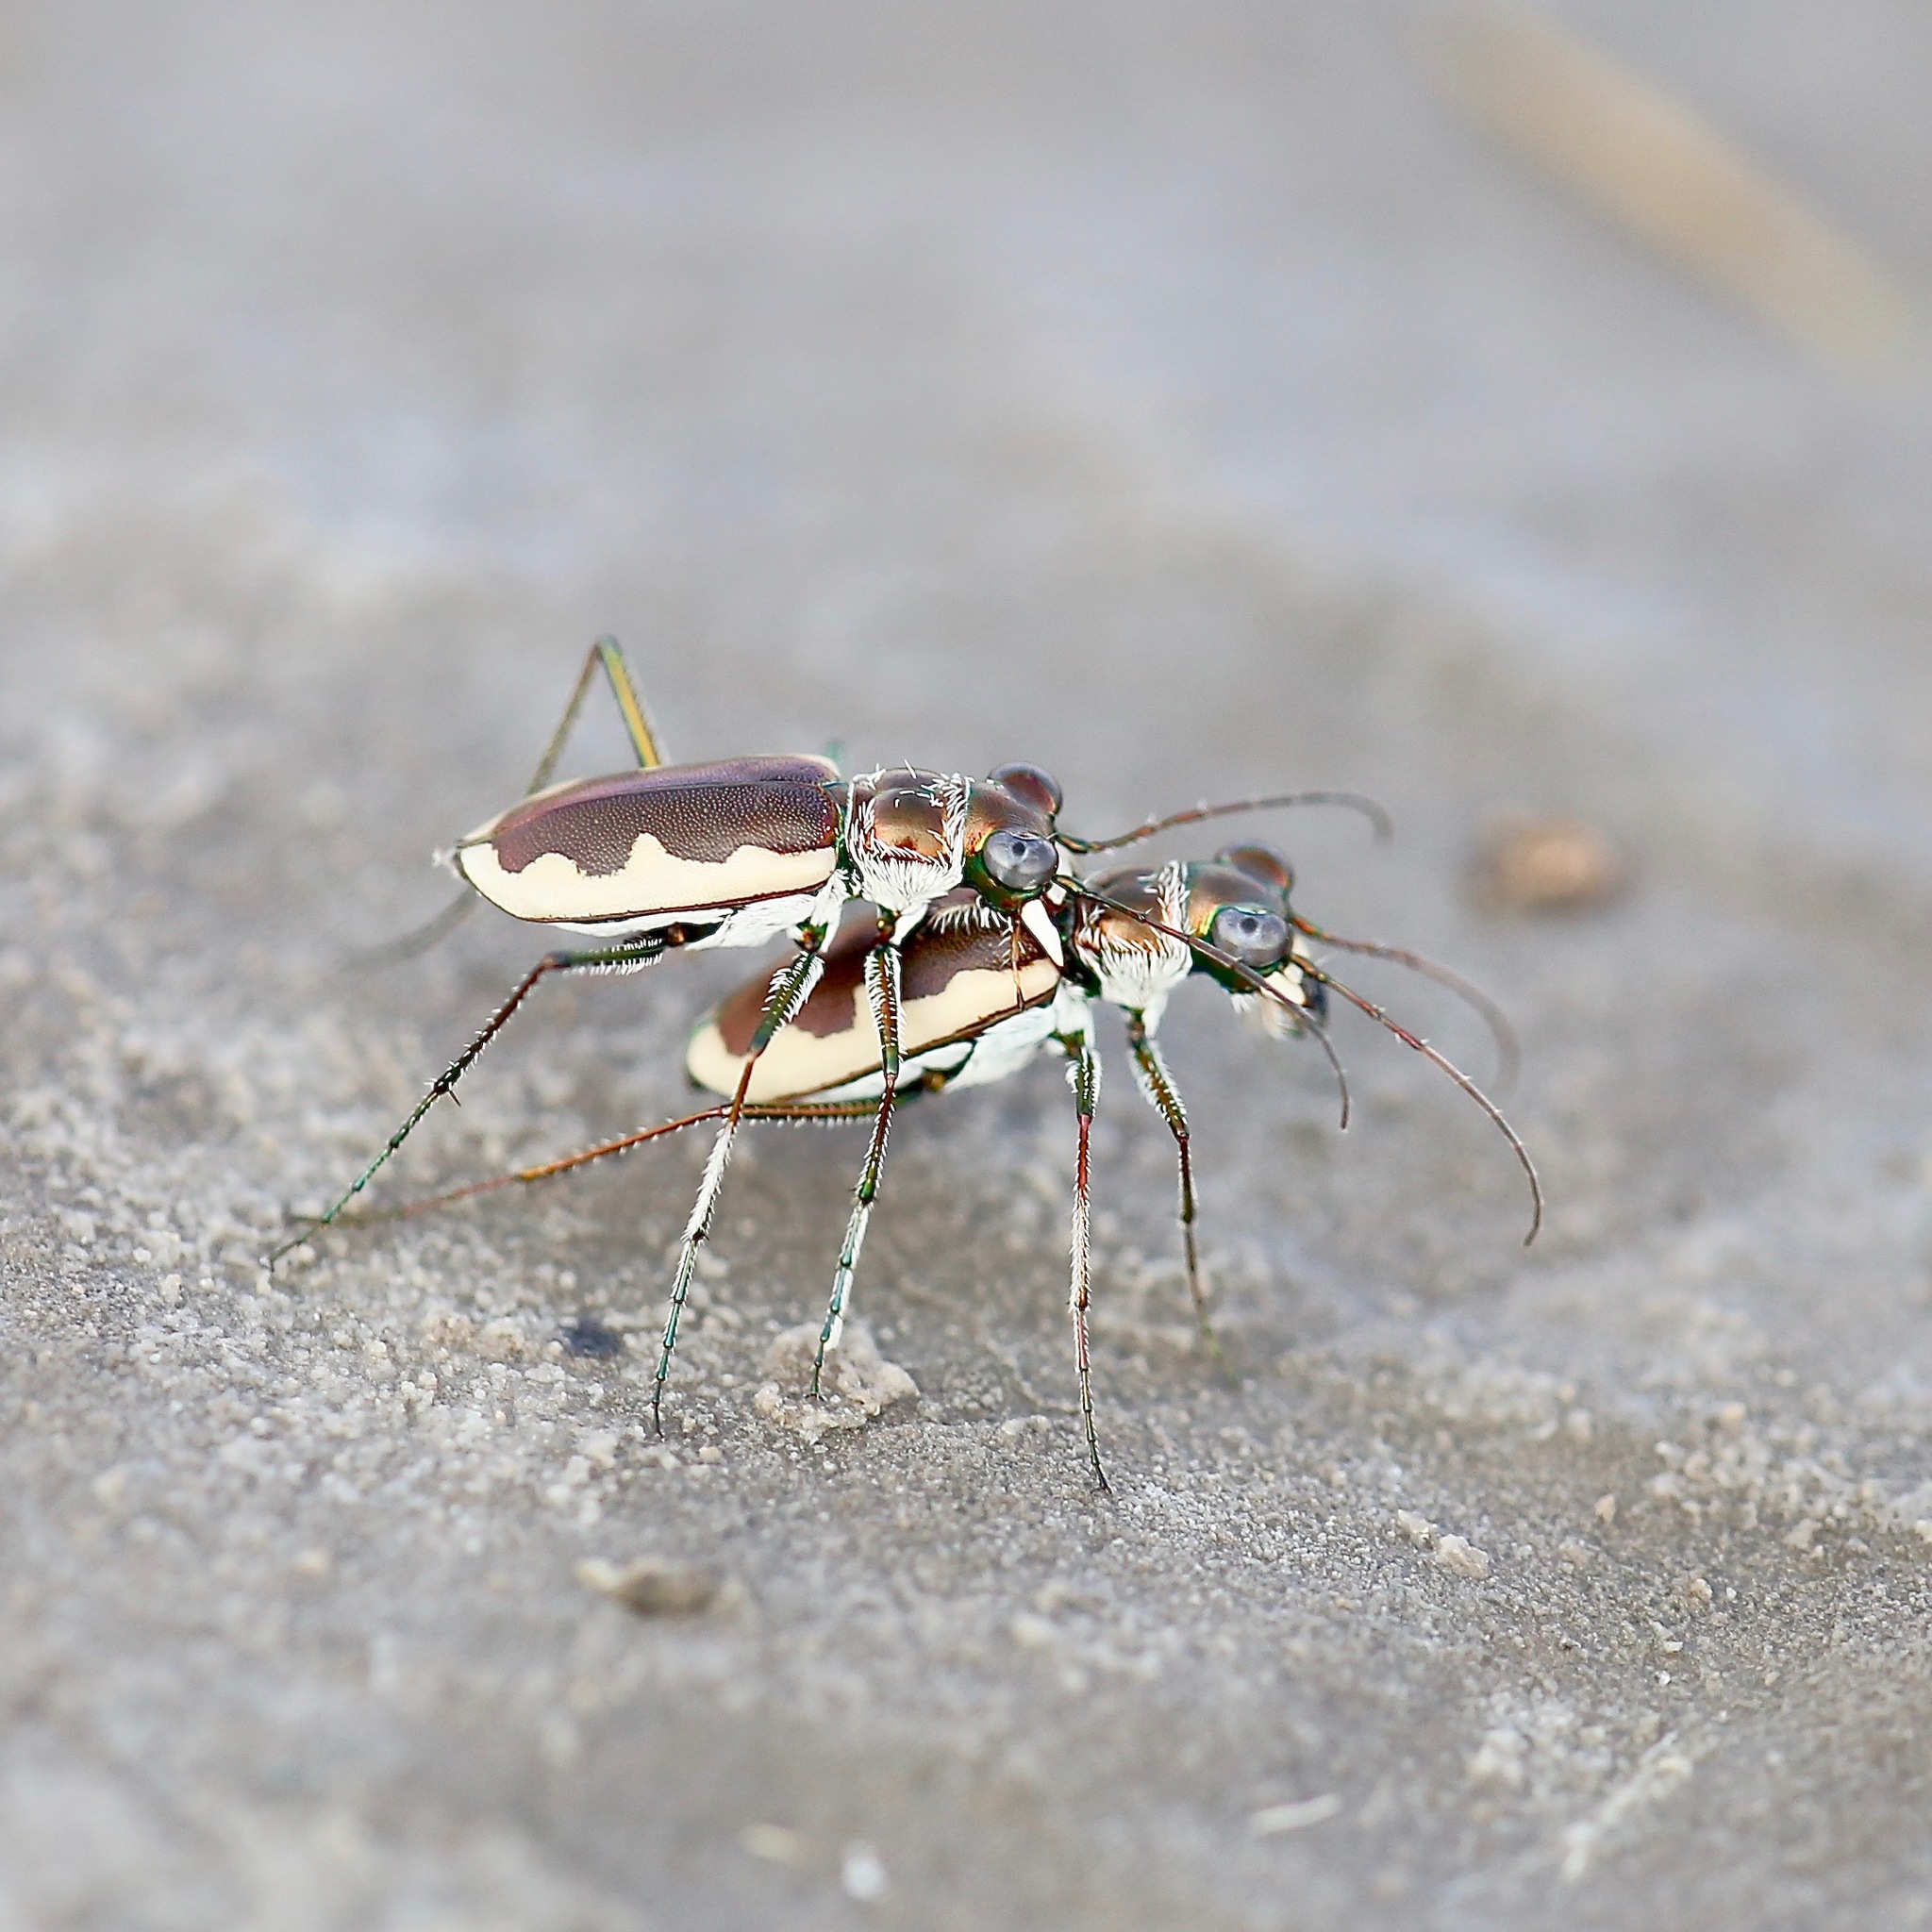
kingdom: Animalia
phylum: Arthropoda
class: Insecta
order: Coleoptera
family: Carabidae
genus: Eunota
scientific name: Eunota circumpicta
